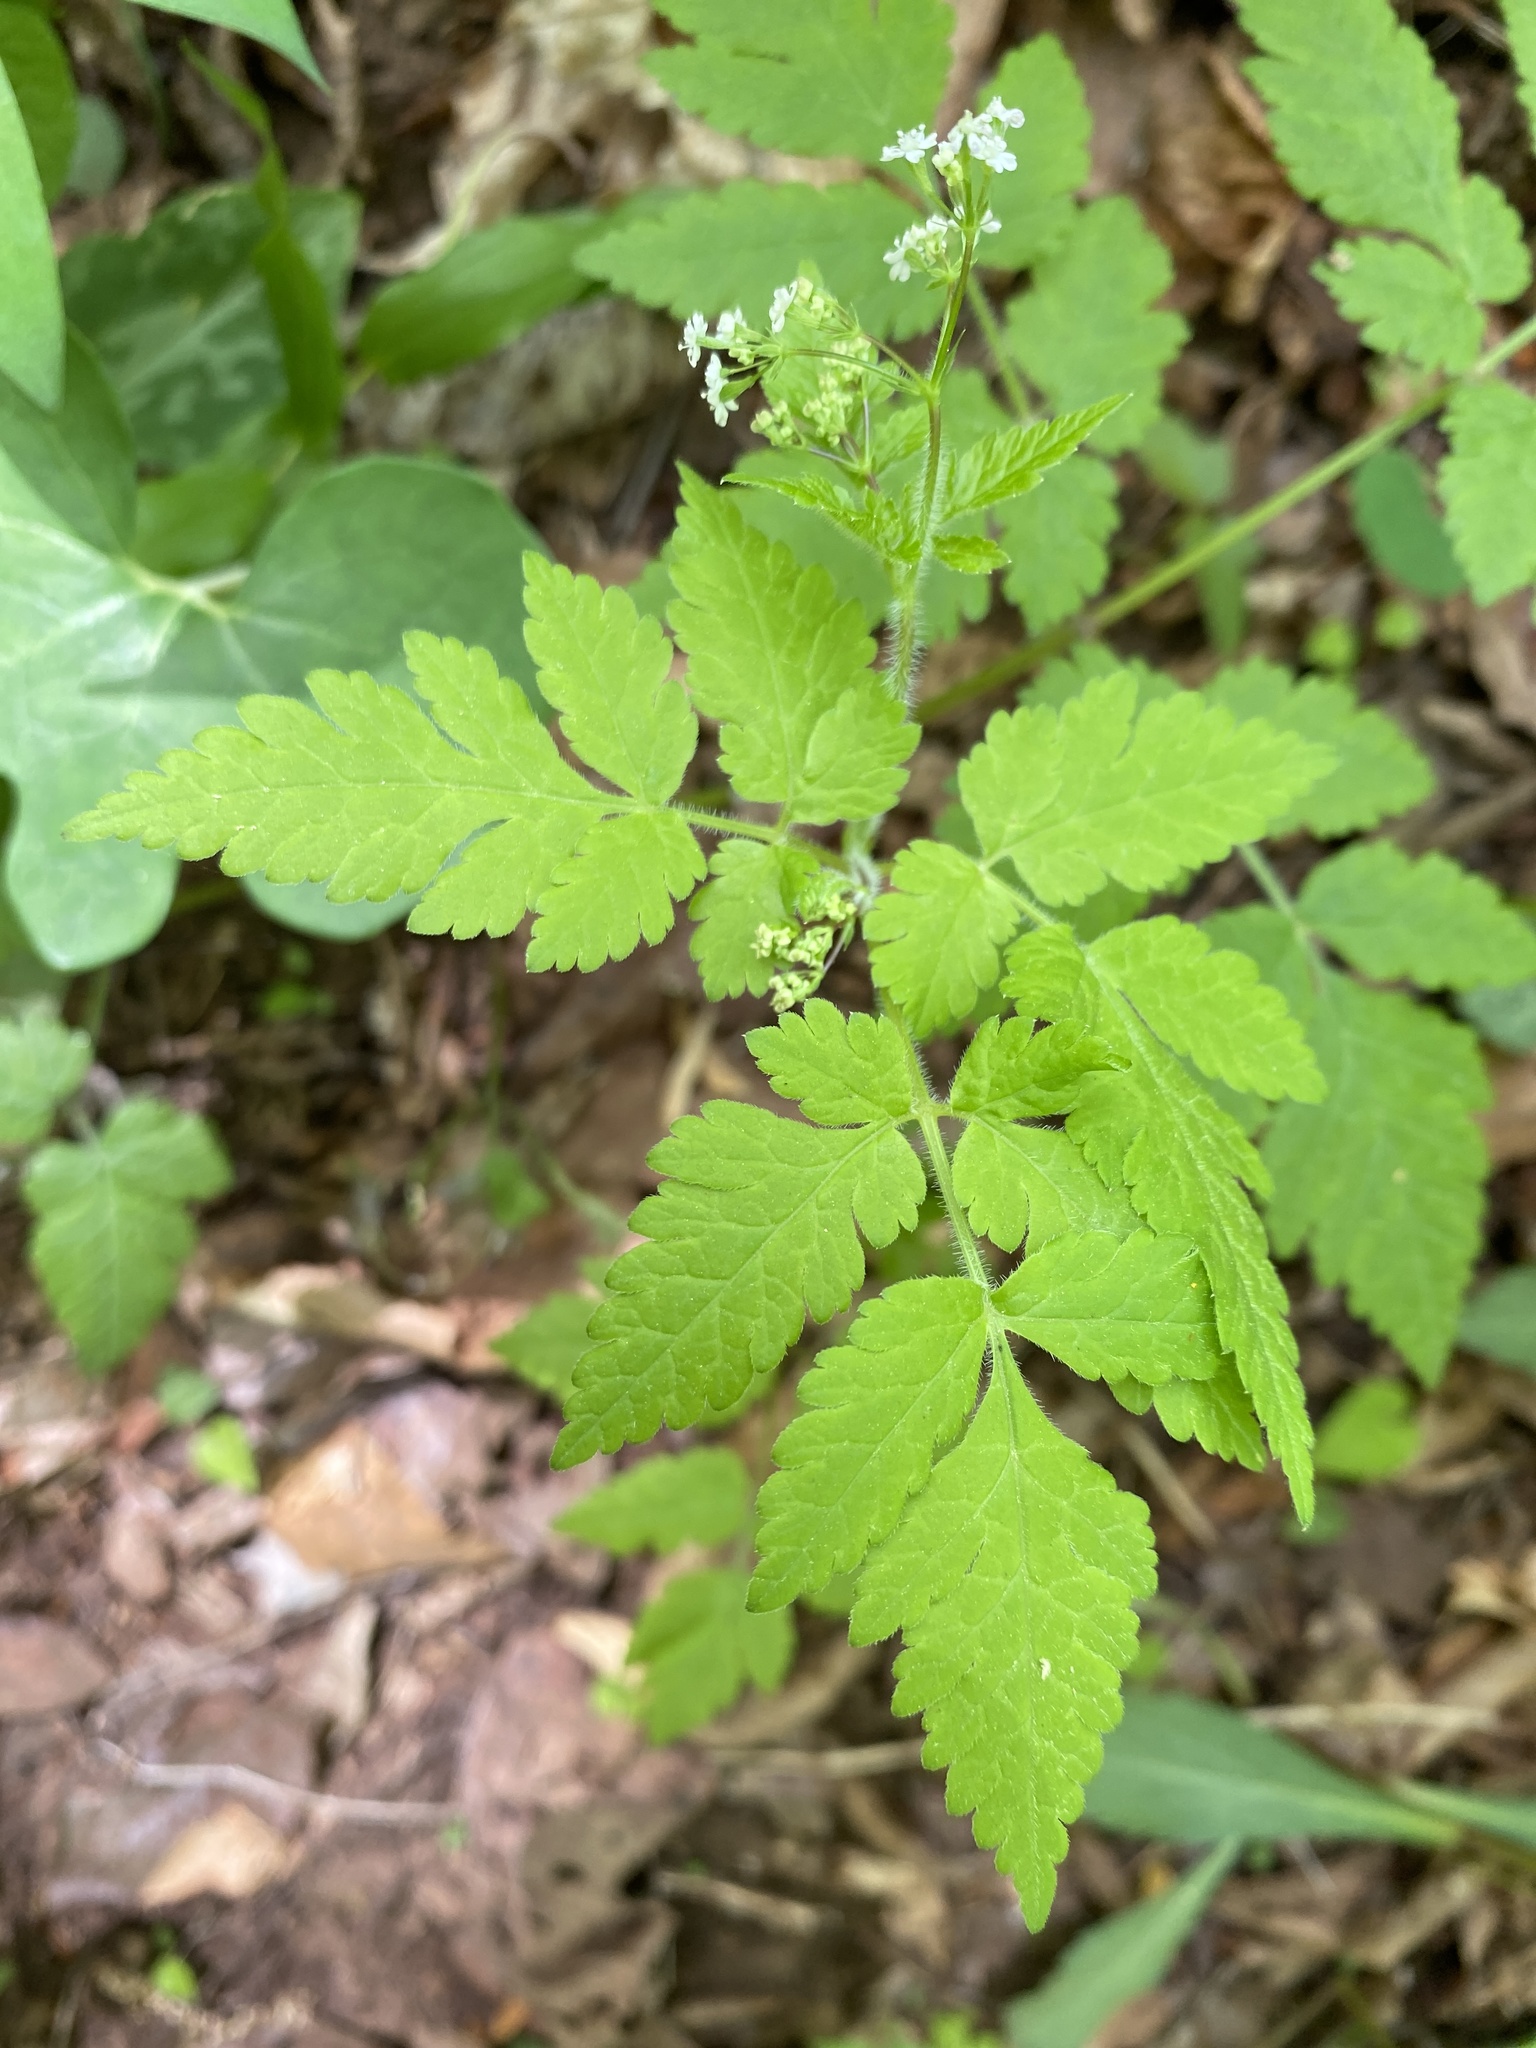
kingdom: Plantae
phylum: Tracheophyta
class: Magnoliopsida
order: Apiales
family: Apiaceae
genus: Osmorhiza
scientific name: Osmorhiza claytonii
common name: Hairy sweet cicely
